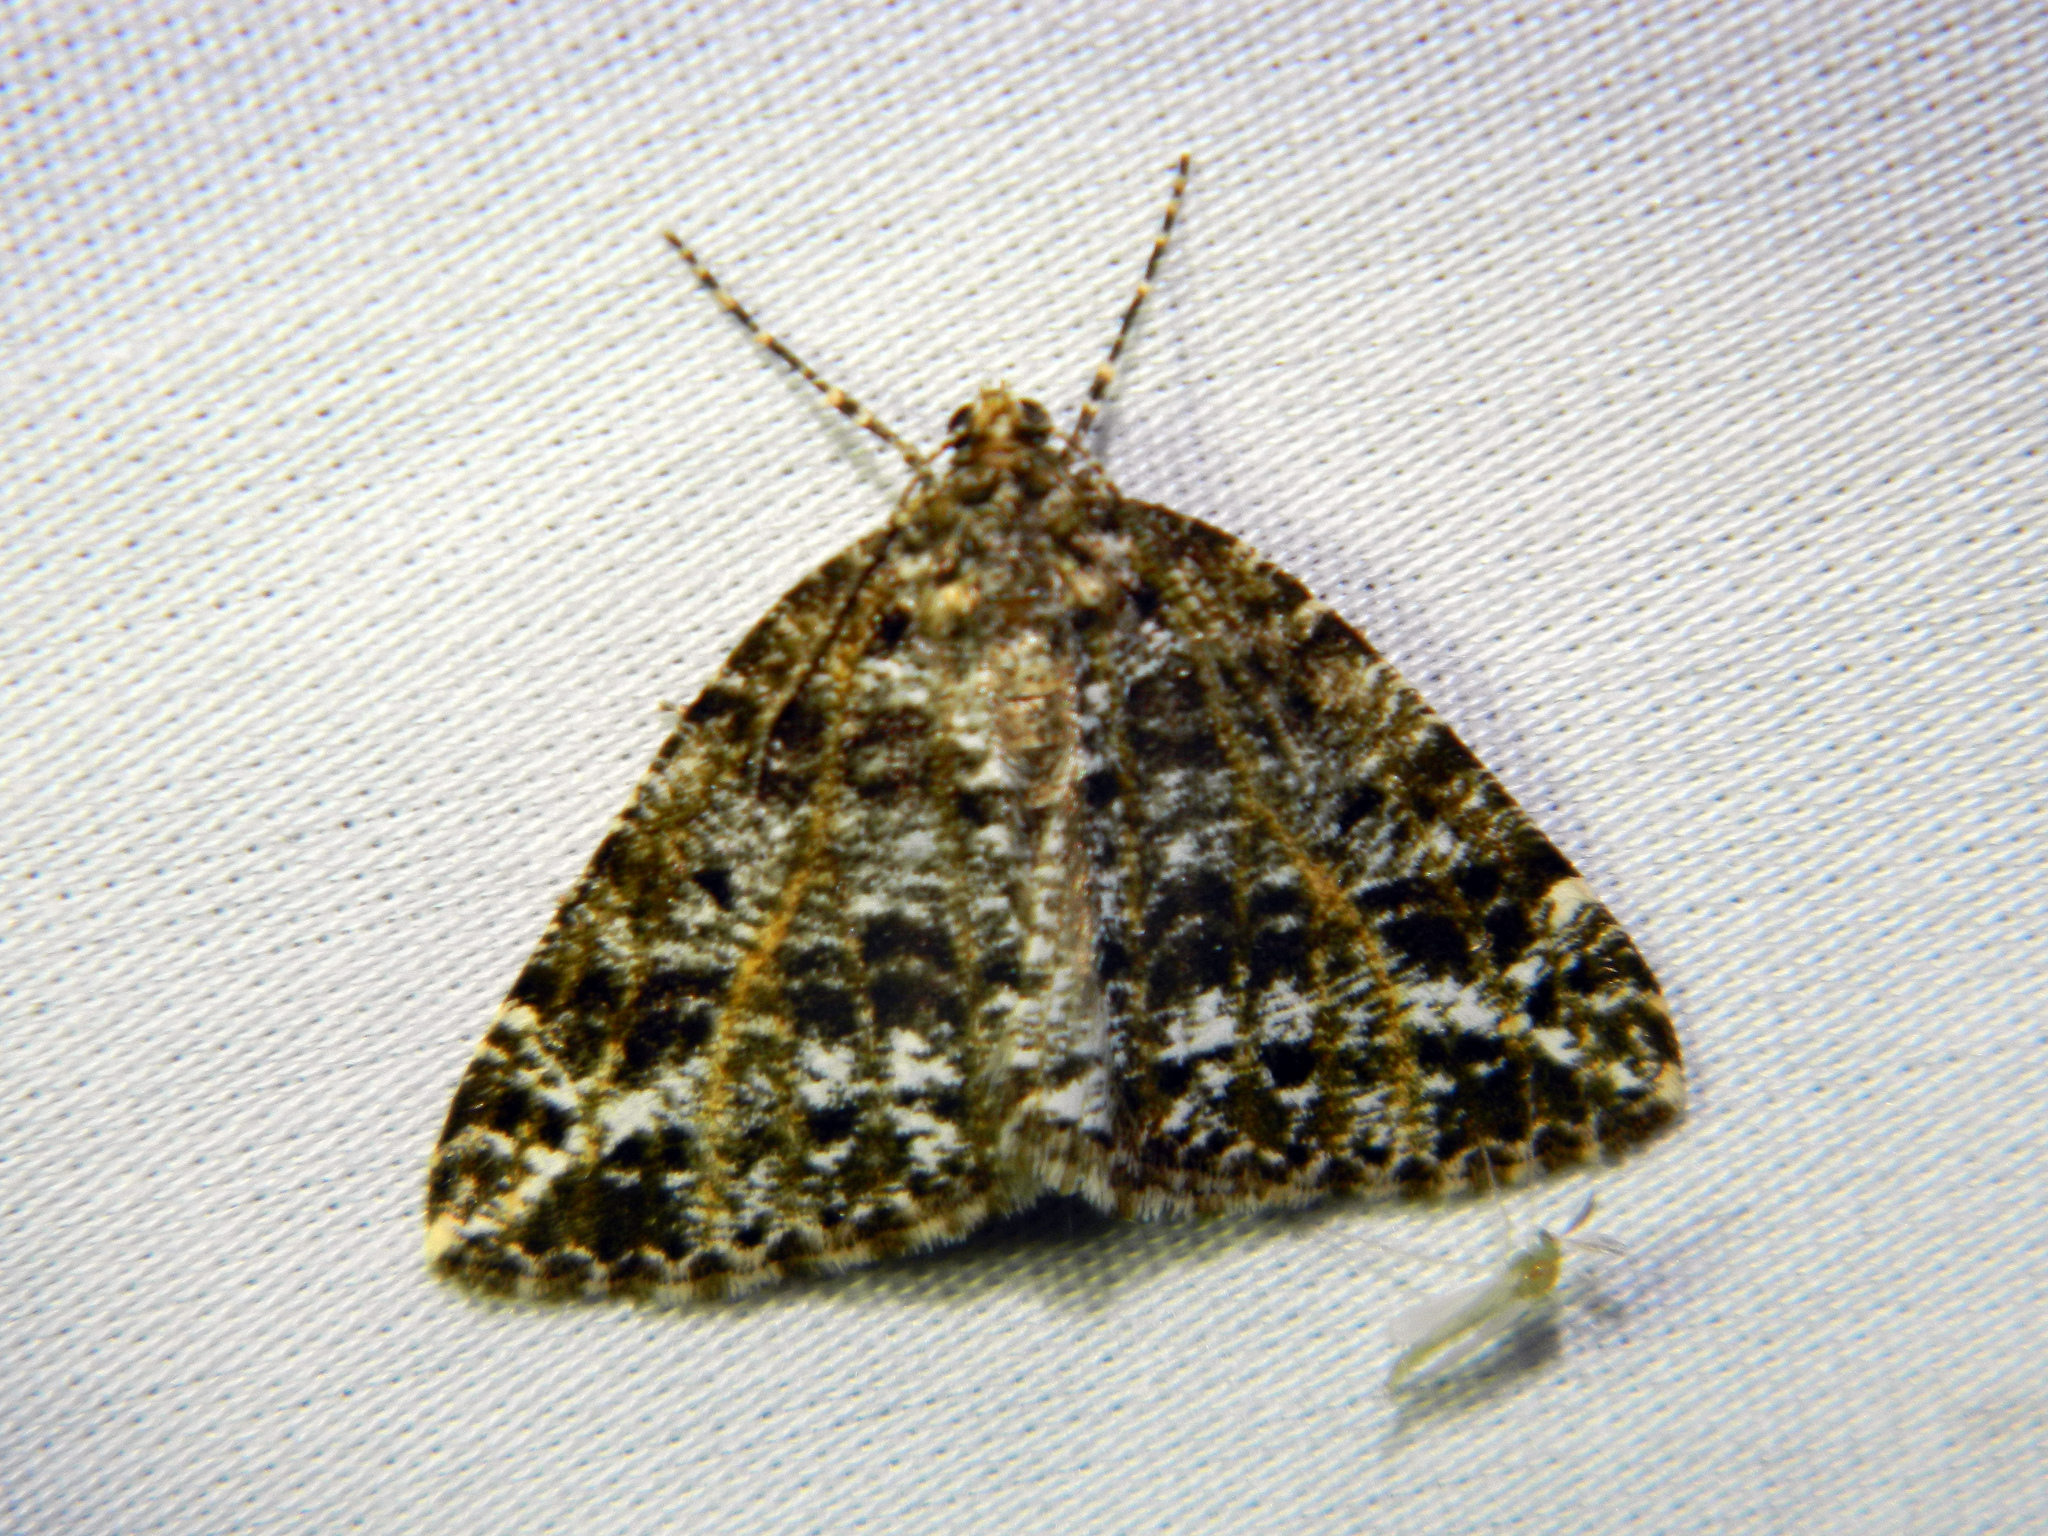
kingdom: Animalia
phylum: Arthropoda
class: Insecta
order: Lepidoptera
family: Geometridae
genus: Orthofidonia
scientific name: Orthofidonia flavivenata
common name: Yellow-veined geometer moth
